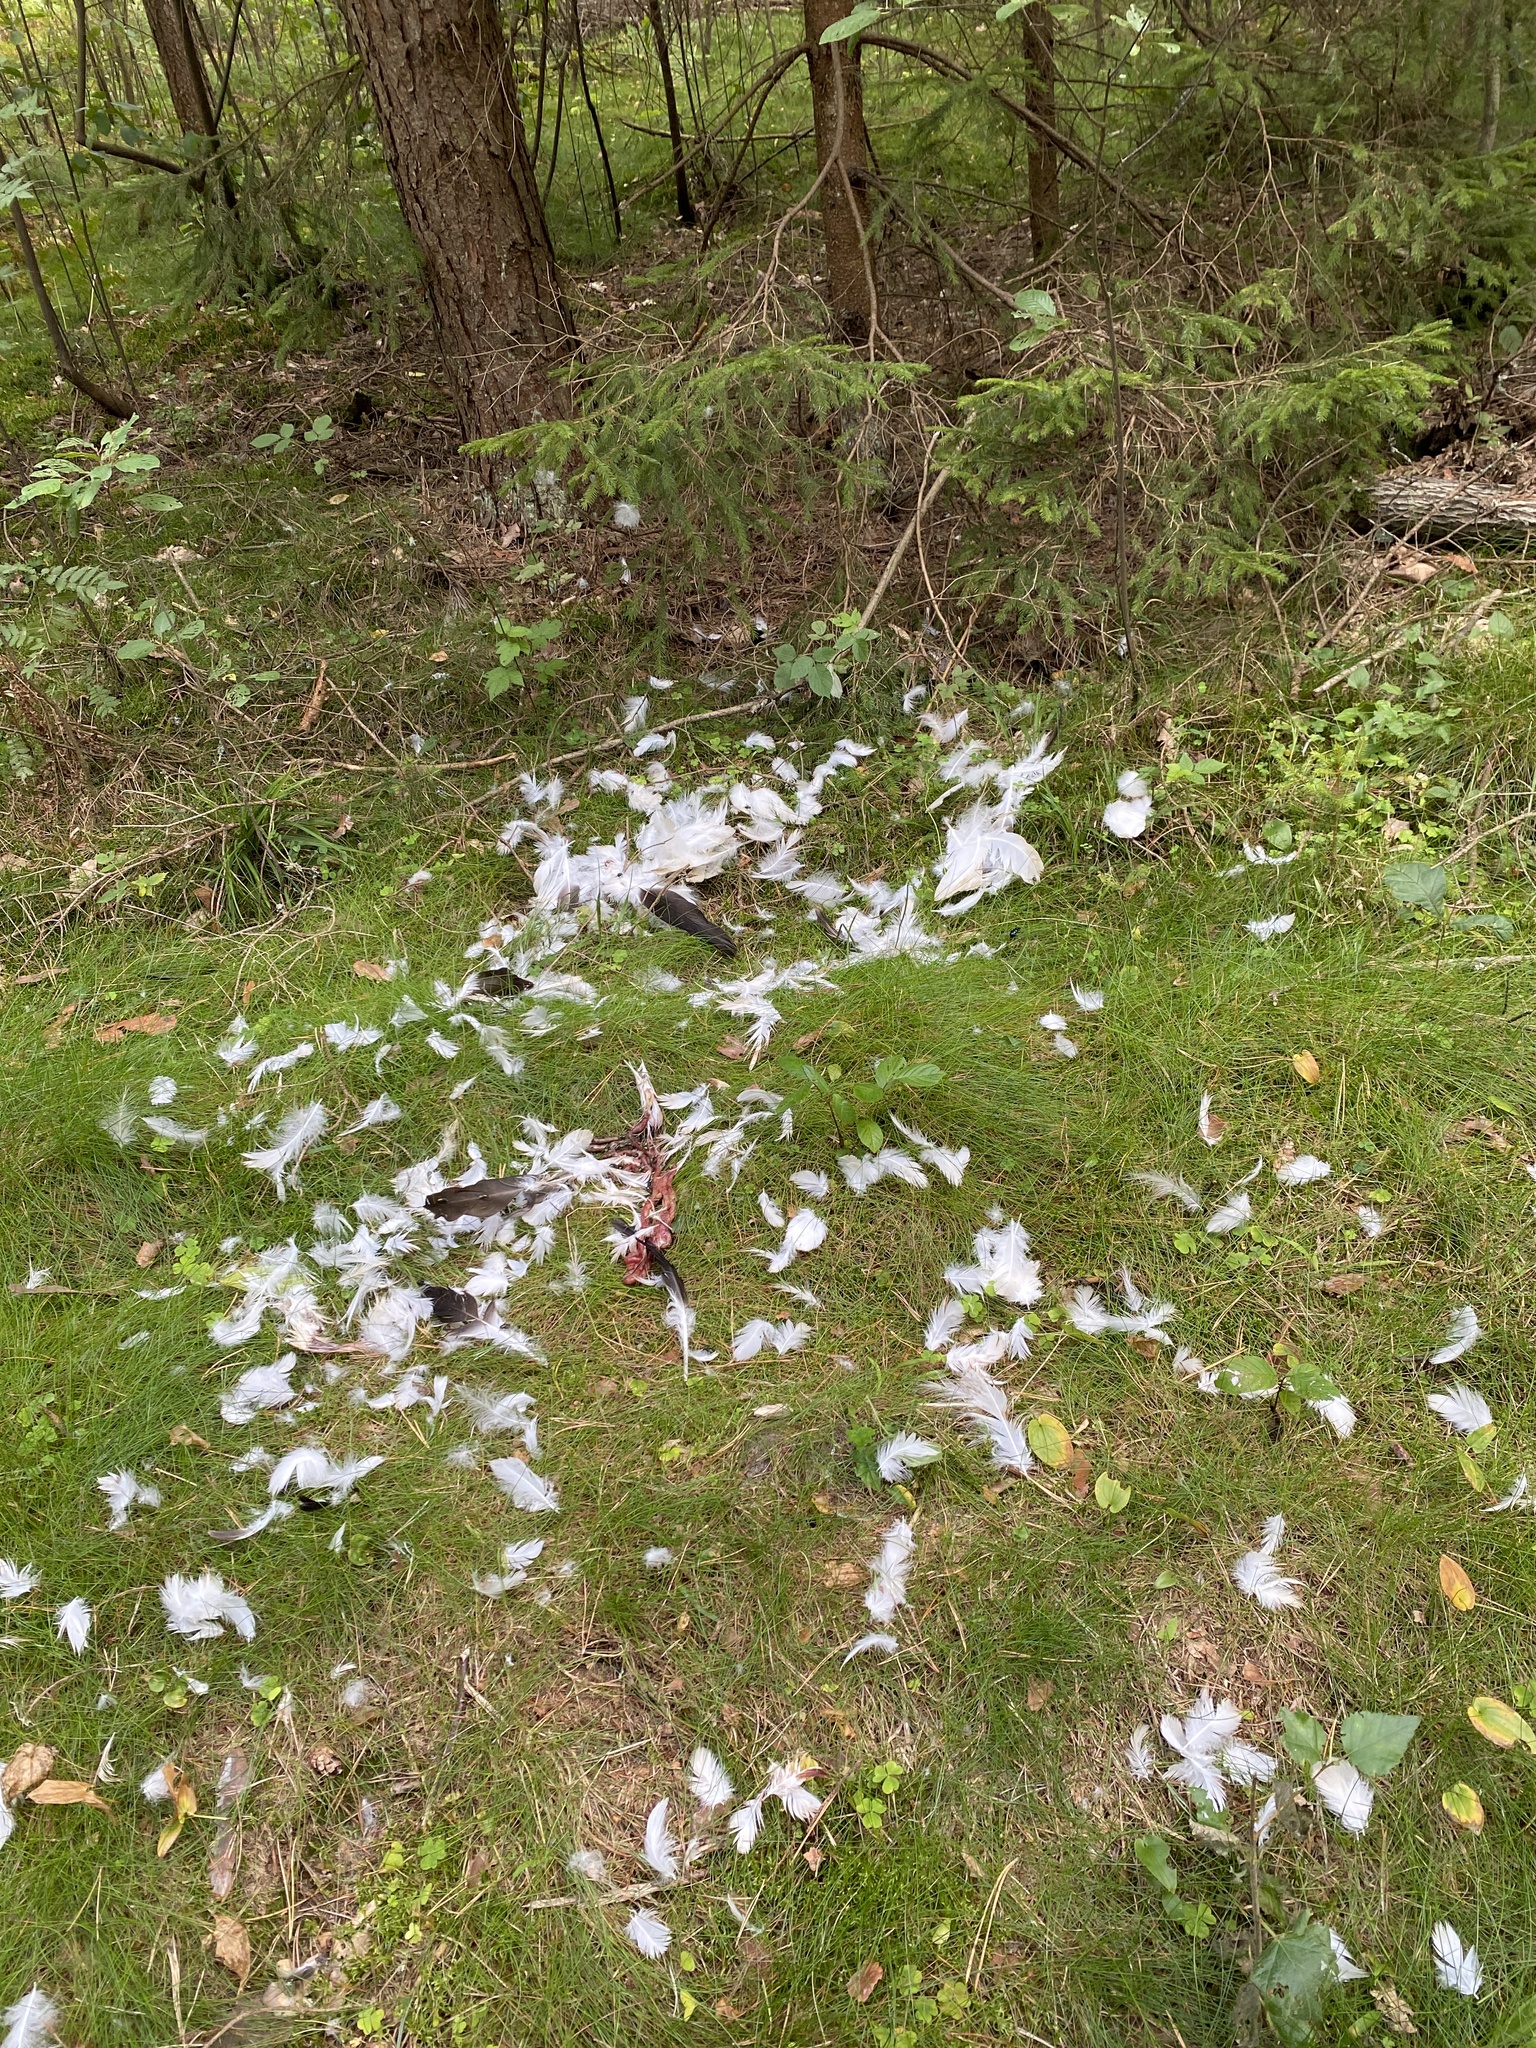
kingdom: Animalia
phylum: Chordata
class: Aves
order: Ciconiiformes
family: Ciconiidae
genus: Ciconia
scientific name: Ciconia ciconia
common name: White stork
